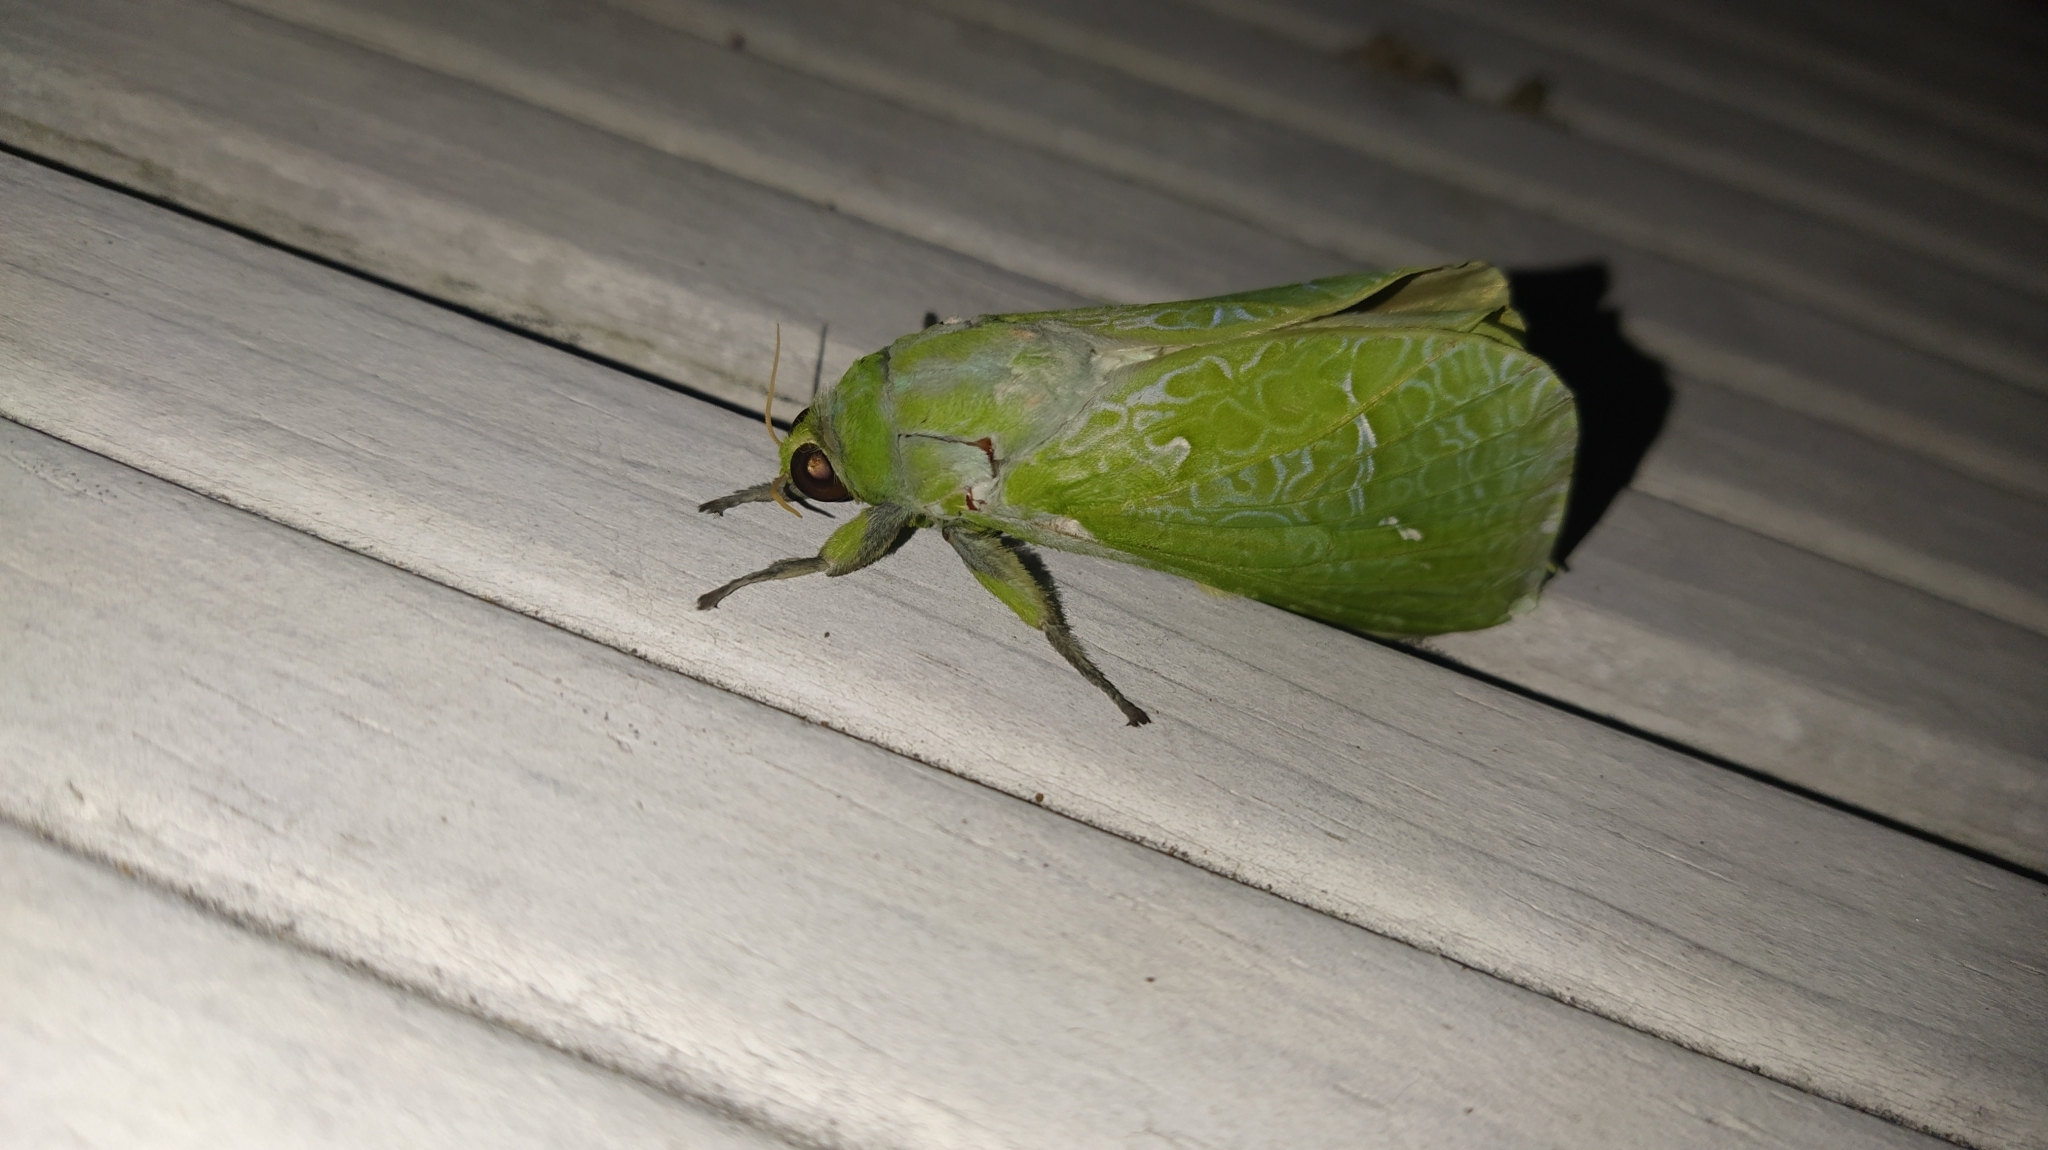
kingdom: Animalia
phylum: Arthropoda
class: Insecta
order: Lepidoptera
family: Hepialidae
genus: Aenetus
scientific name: Aenetus virescens
